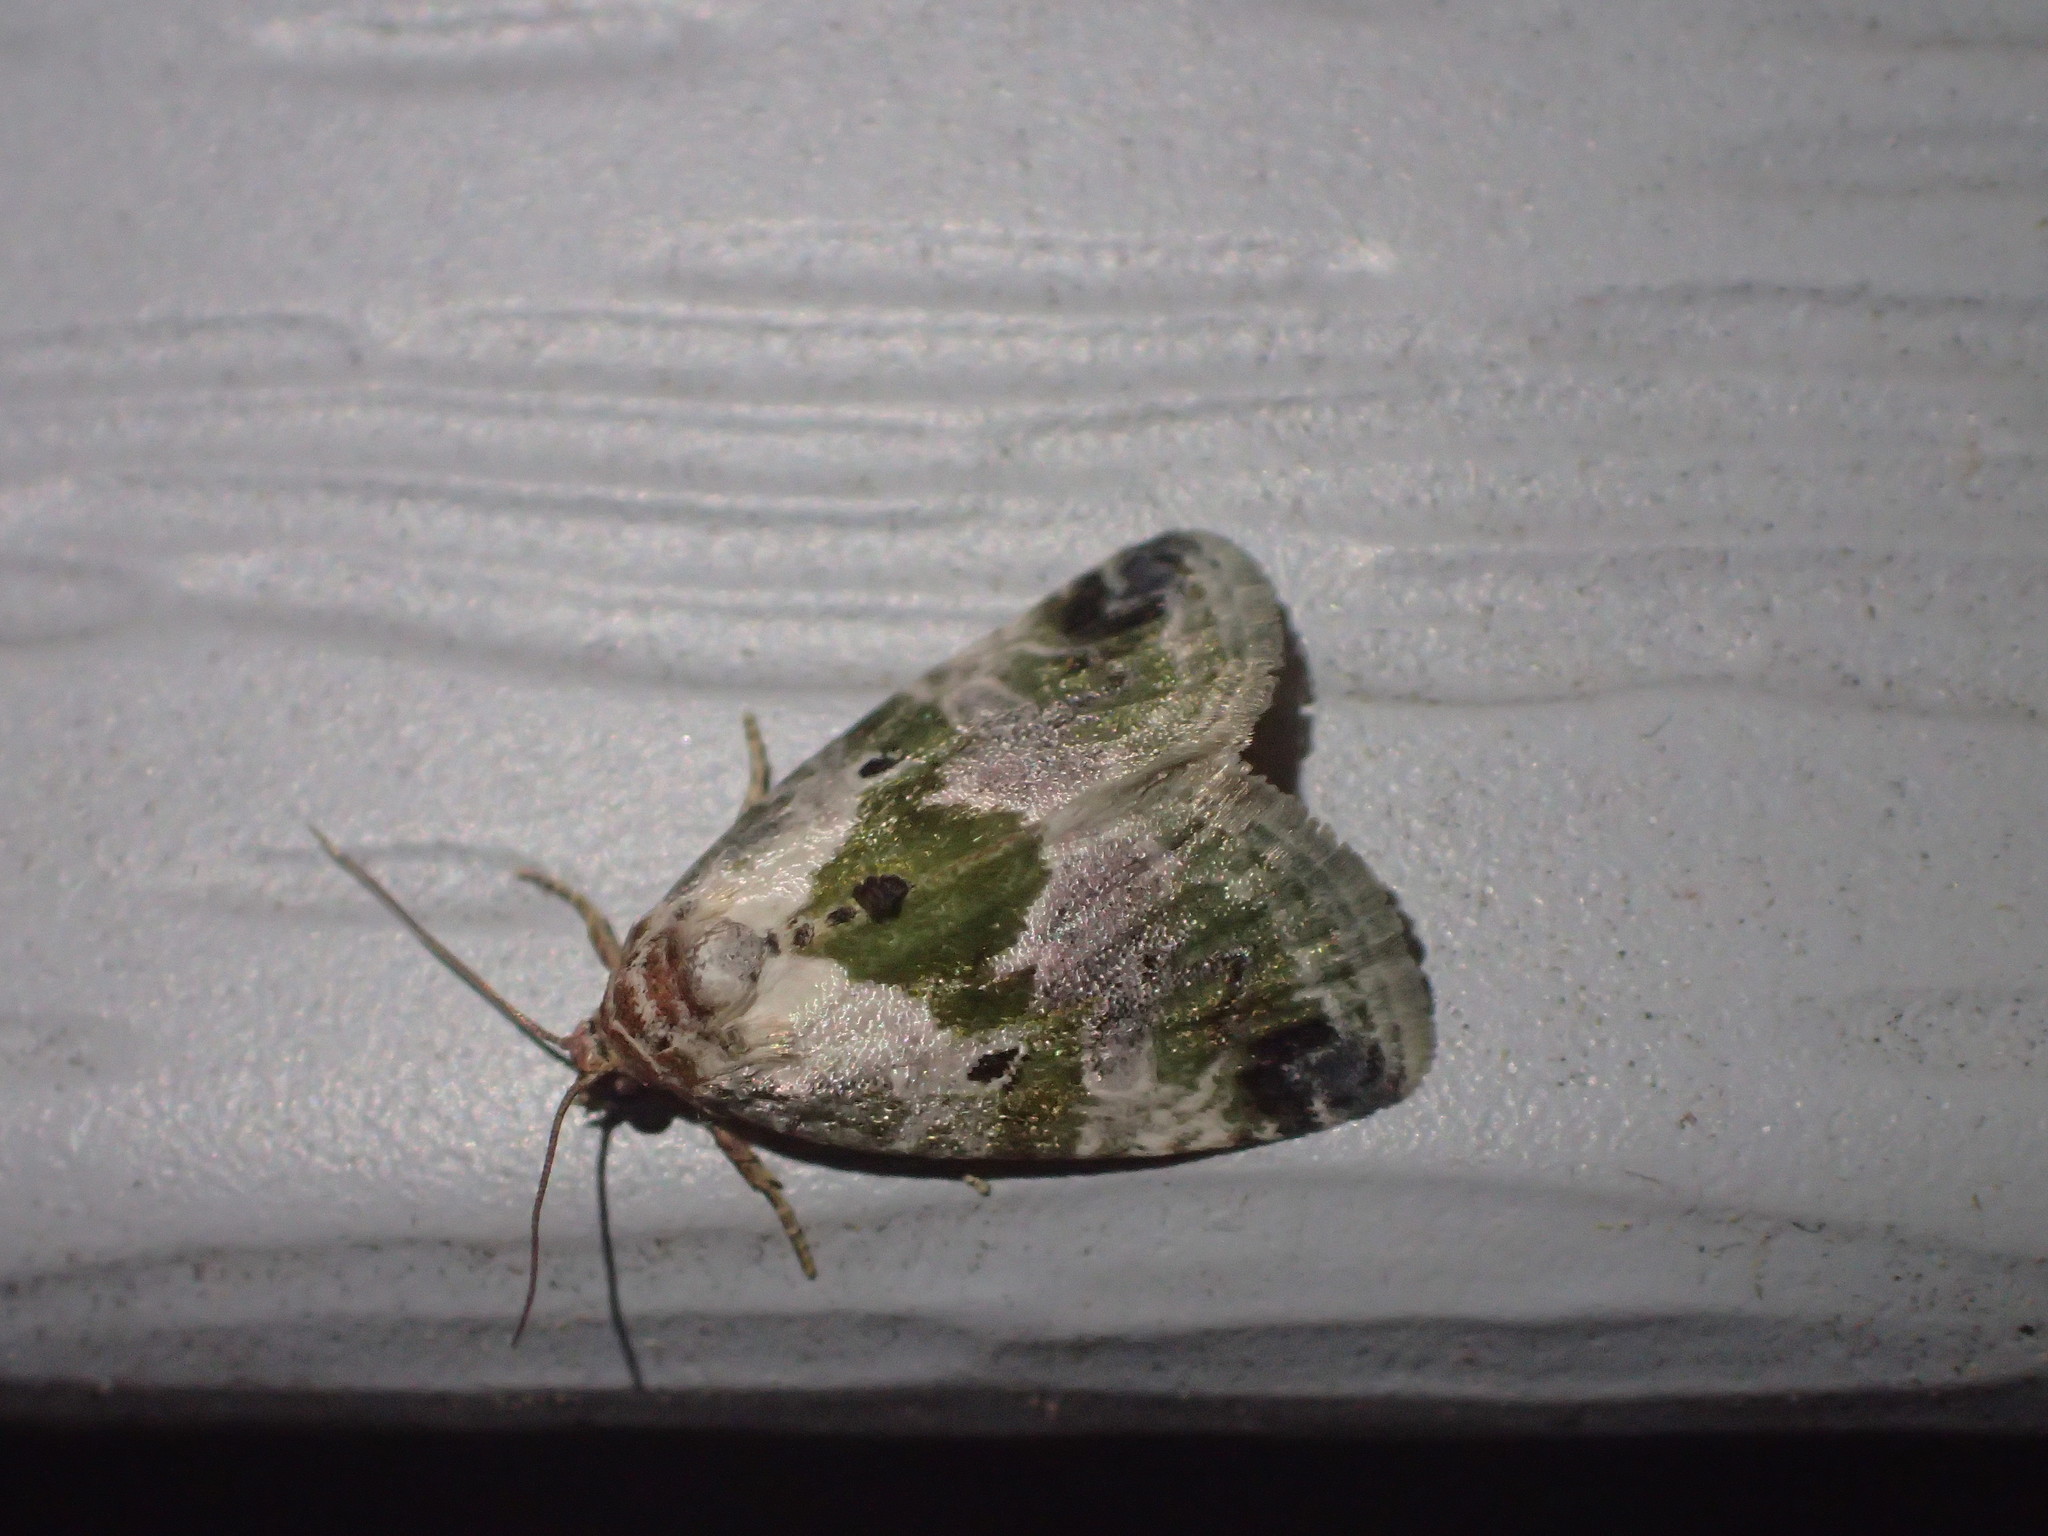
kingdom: Animalia
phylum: Arthropoda
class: Insecta
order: Lepidoptera
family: Noctuidae
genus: Maliattha
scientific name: Maliattha synochitis
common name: Black-dotted glyph
